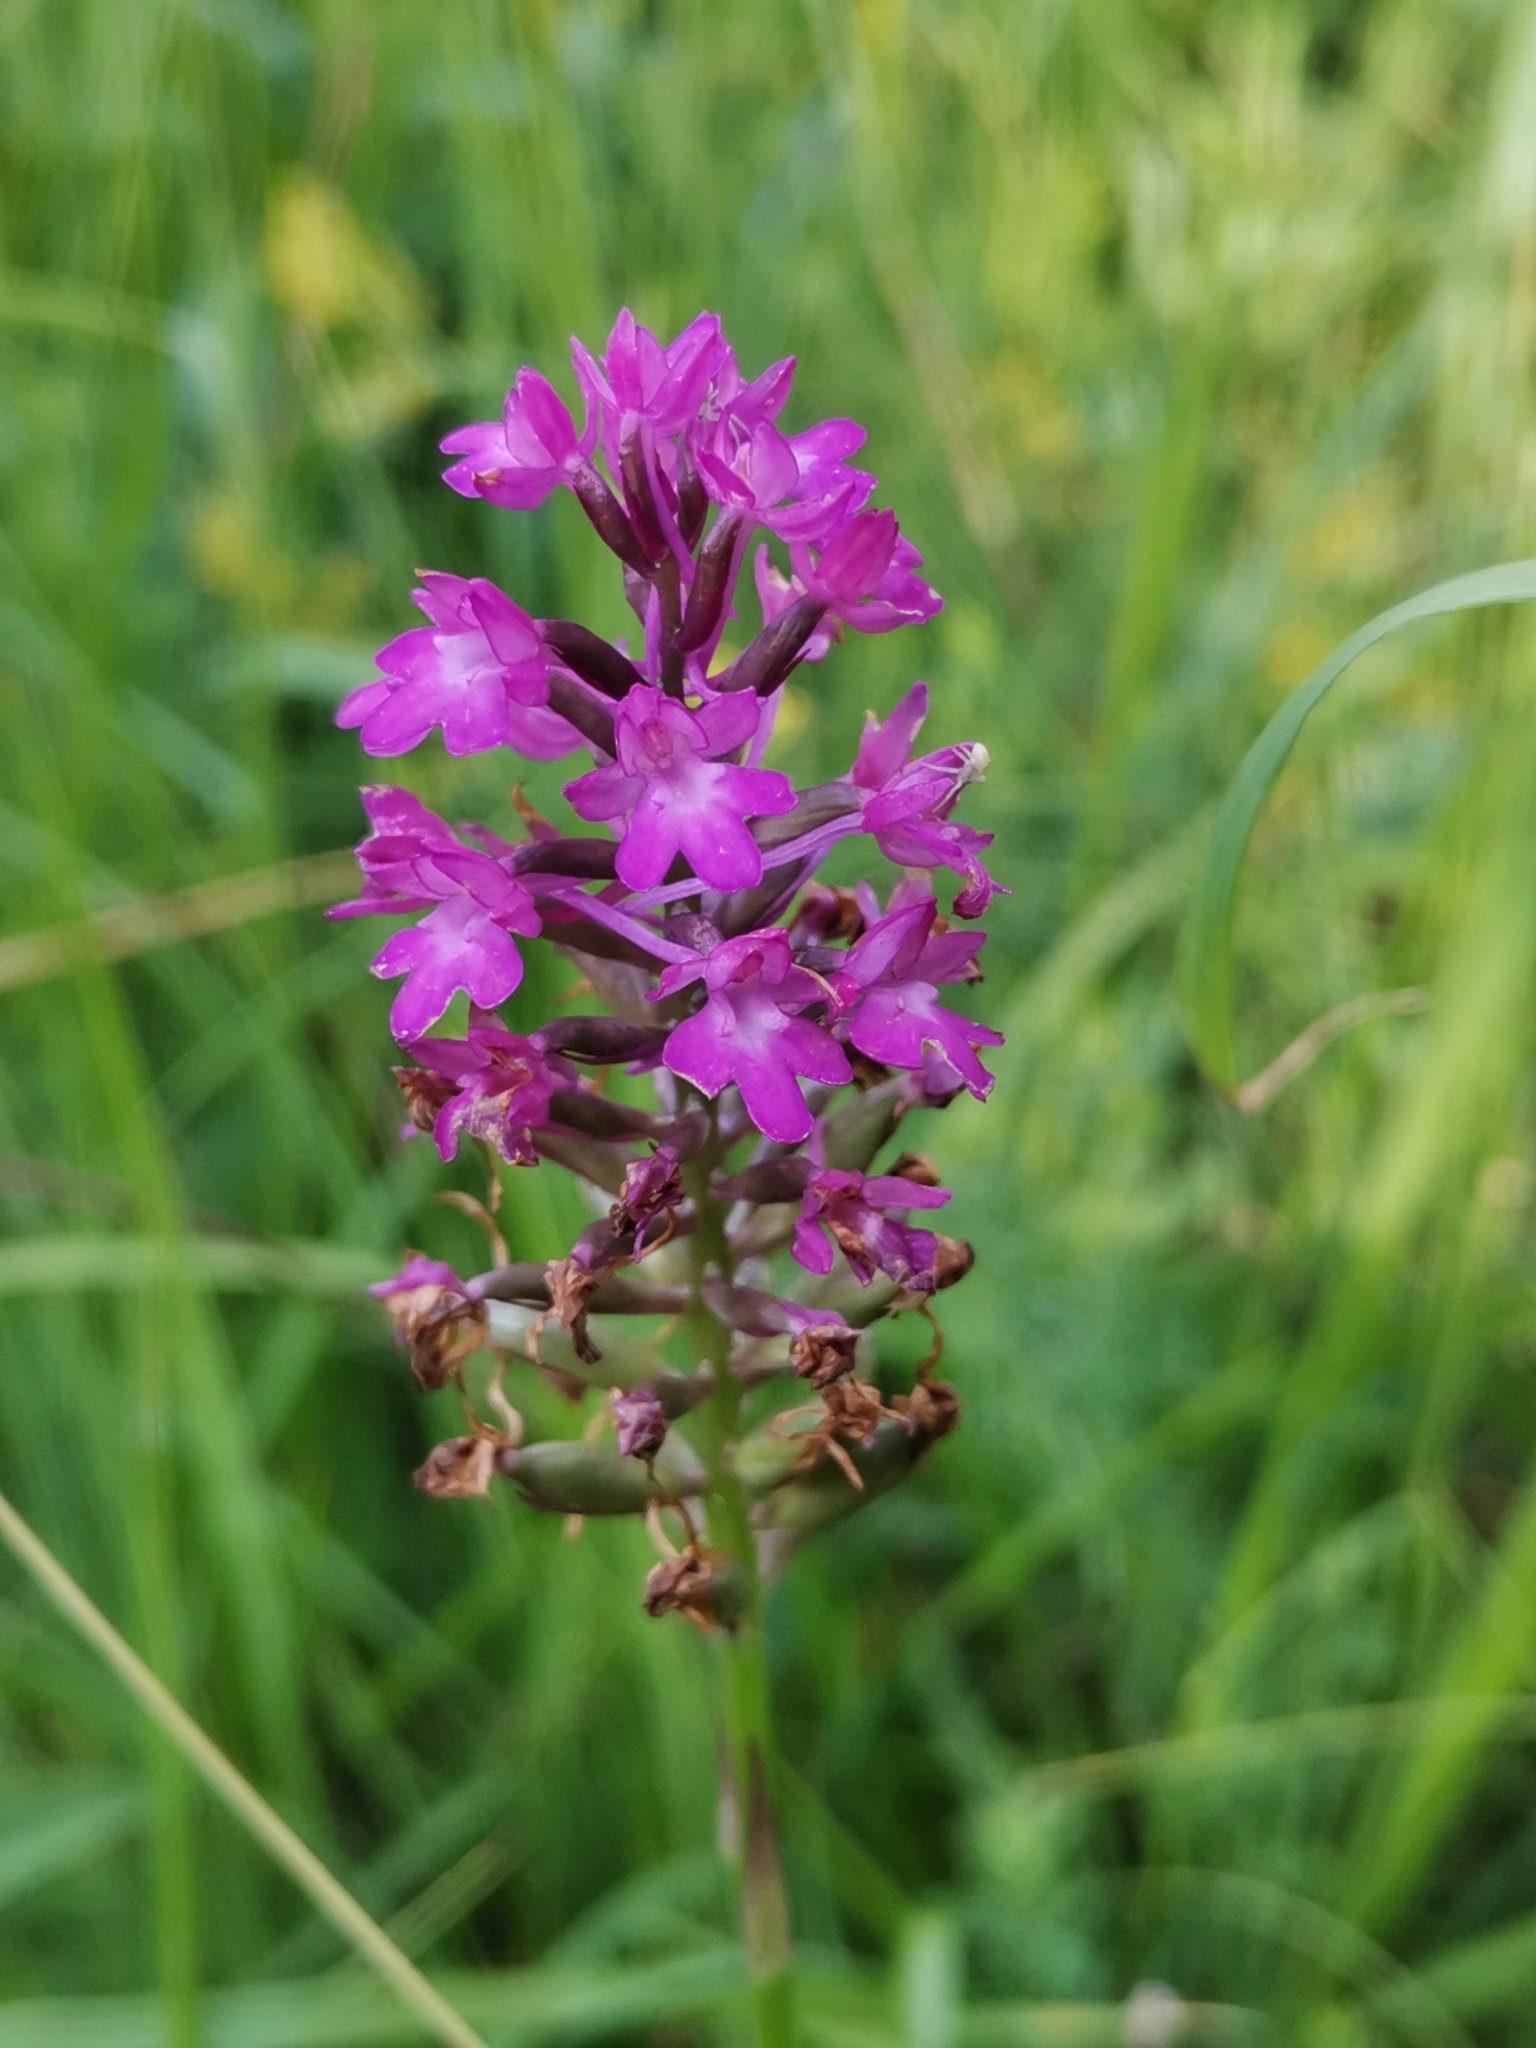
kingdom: Plantae
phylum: Tracheophyta
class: Liliopsida
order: Asparagales
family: Orchidaceae
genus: Anacamptis
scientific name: Anacamptis pyramidalis
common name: Pyramidal orchid
